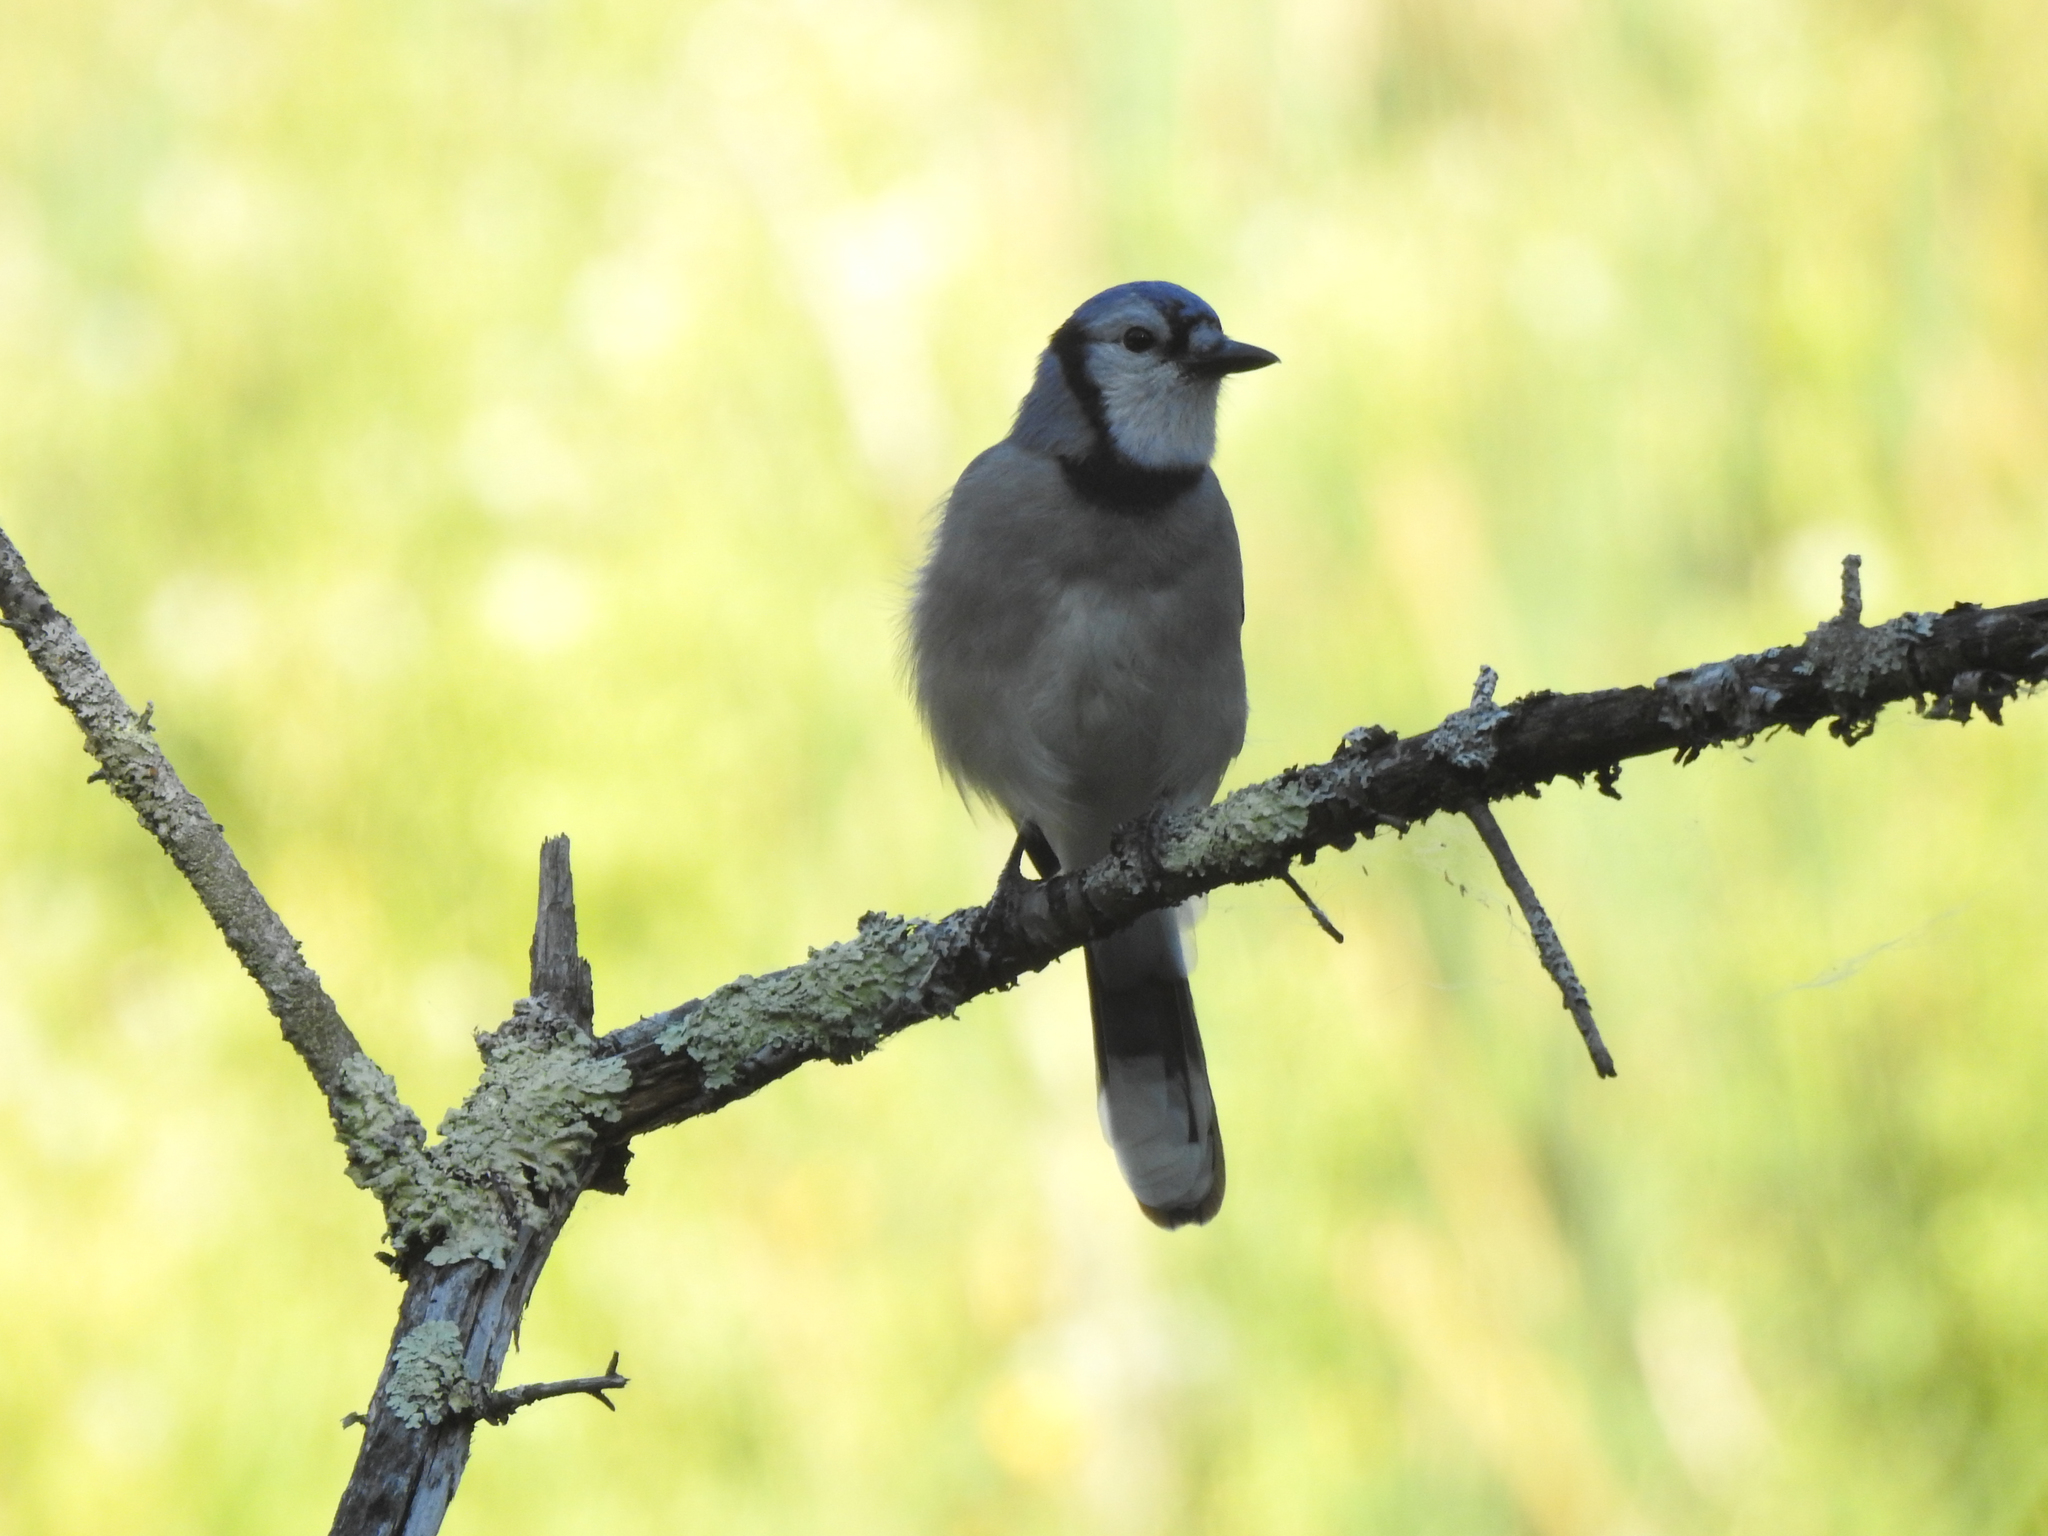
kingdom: Animalia
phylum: Chordata
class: Aves
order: Passeriformes
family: Corvidae
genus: Cyanocitta
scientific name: Cyanocitta cristata
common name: Blue jay
